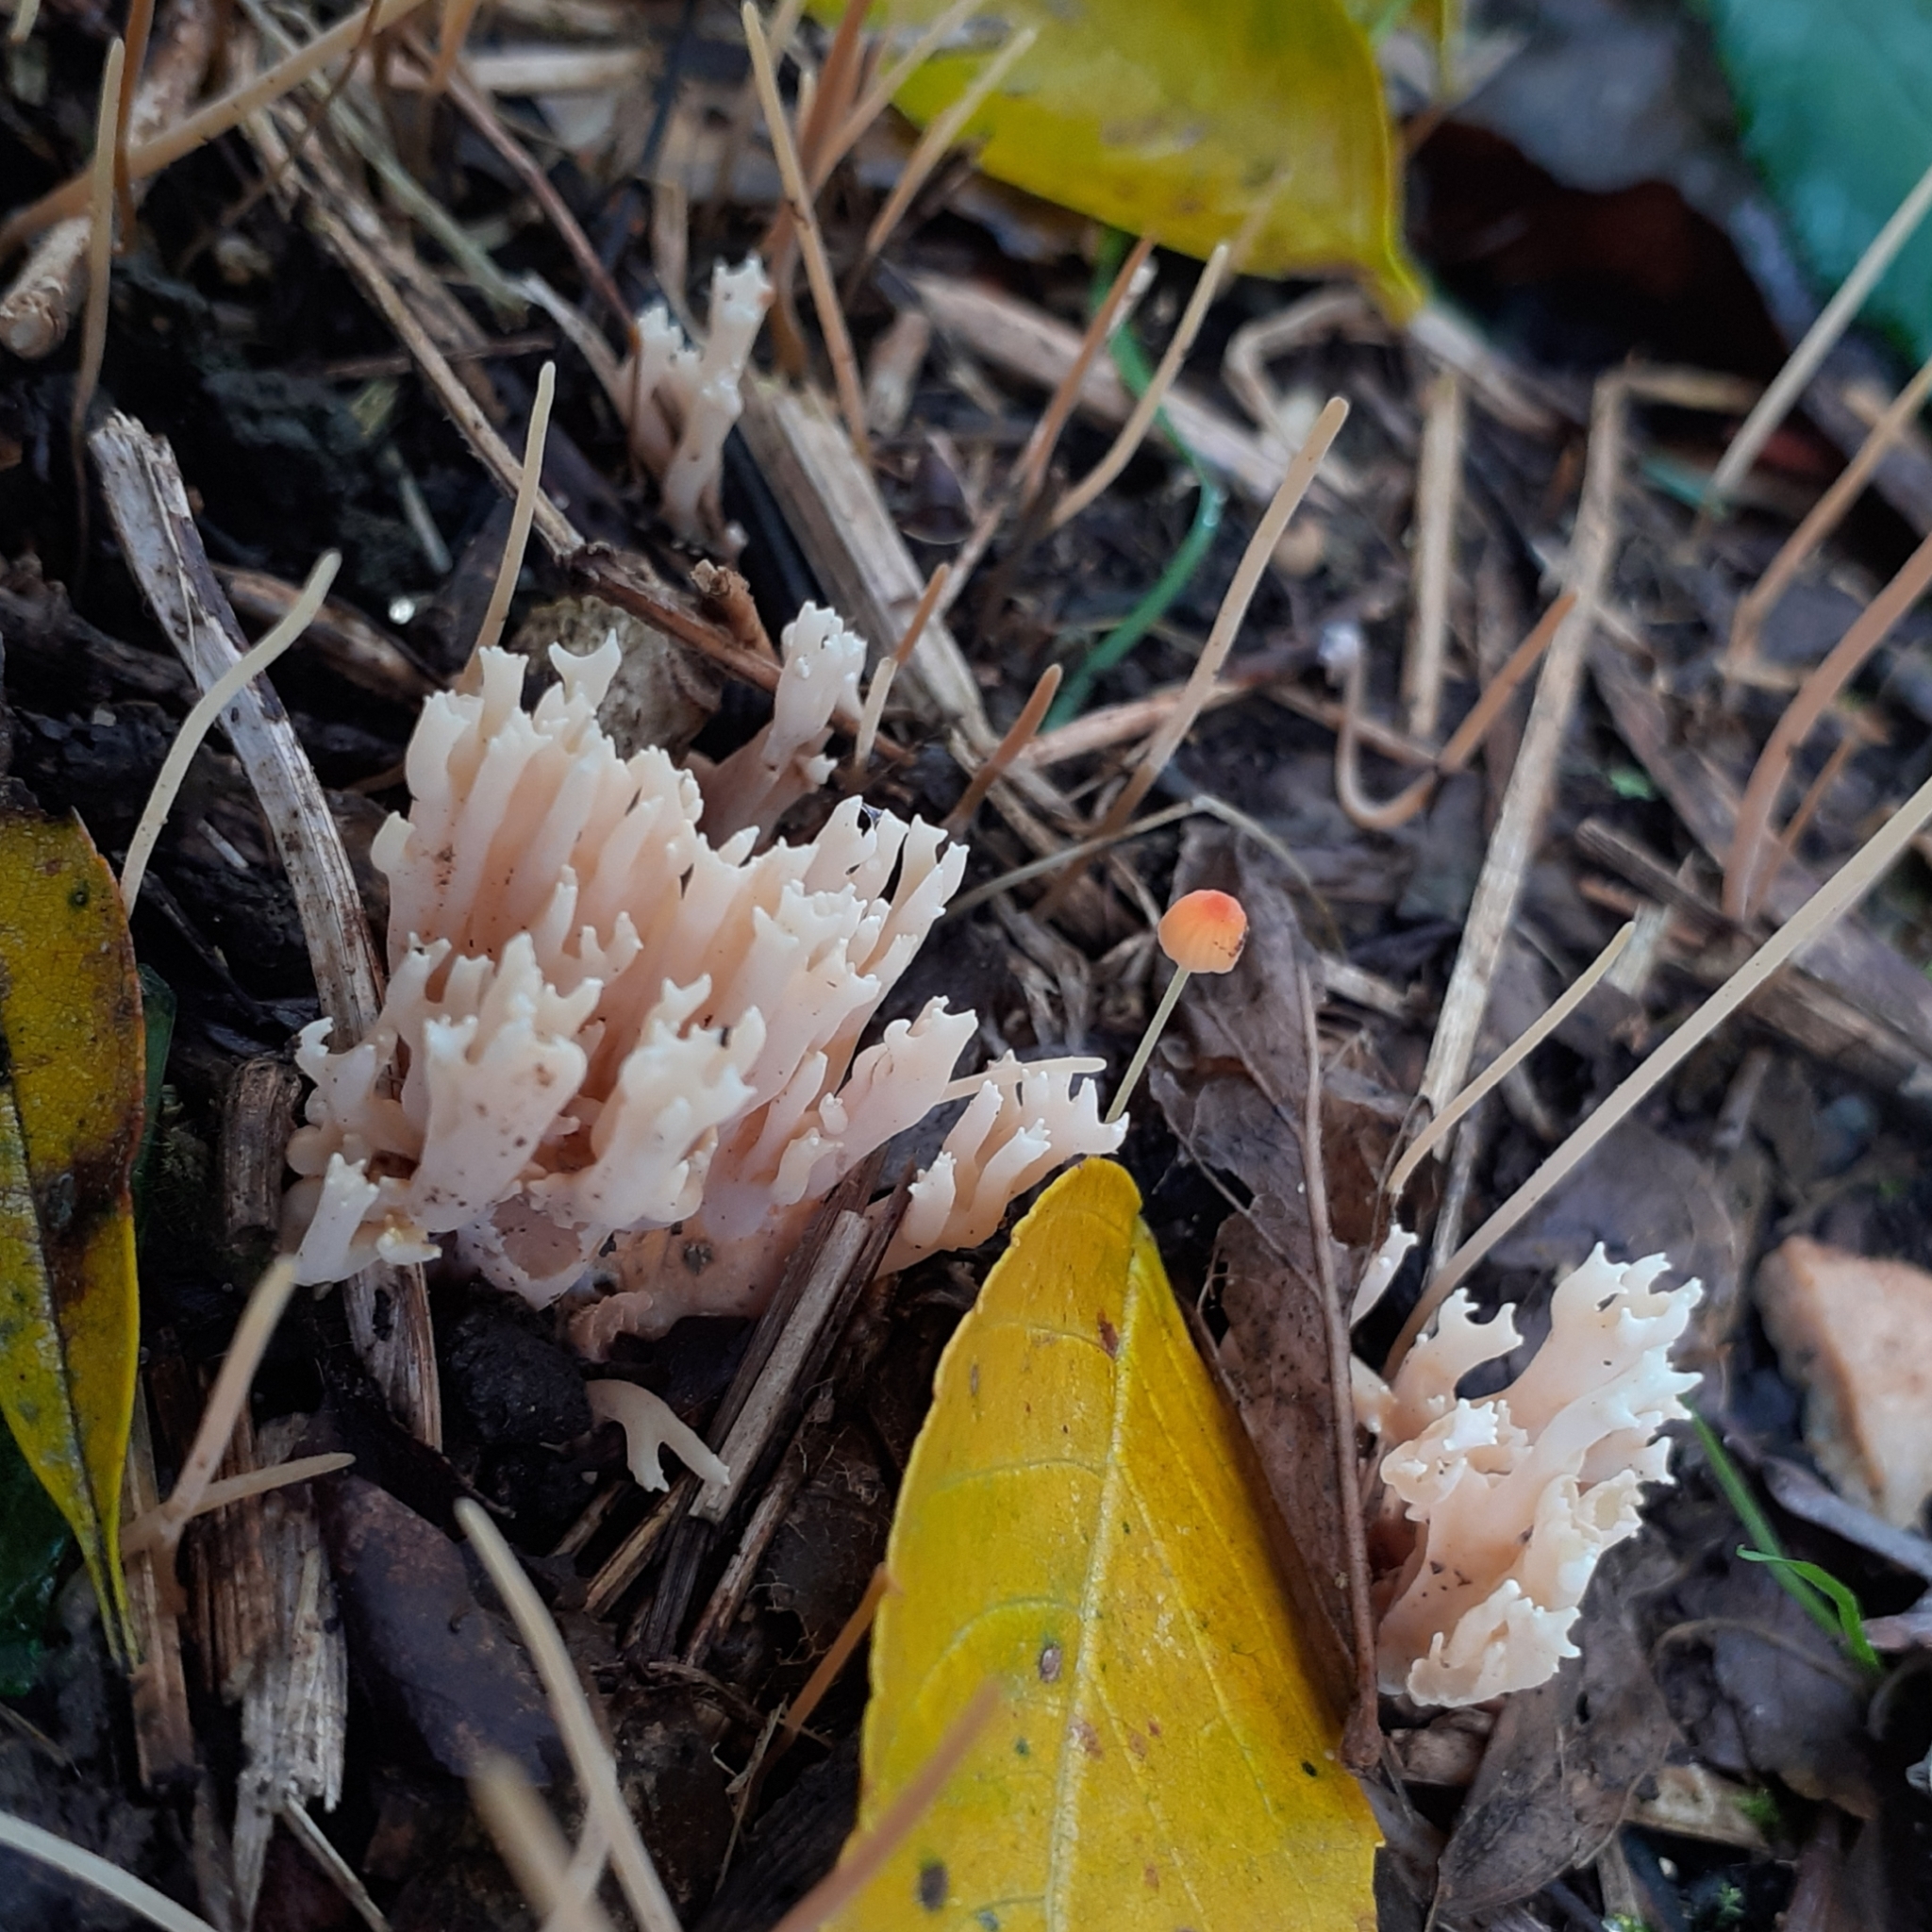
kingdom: Fungi
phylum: Basidiomycota
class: Agaricomycetes
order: Agaricales
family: Mycenaceae
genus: Mycena
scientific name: Mycena acicula
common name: Orange bonnet
